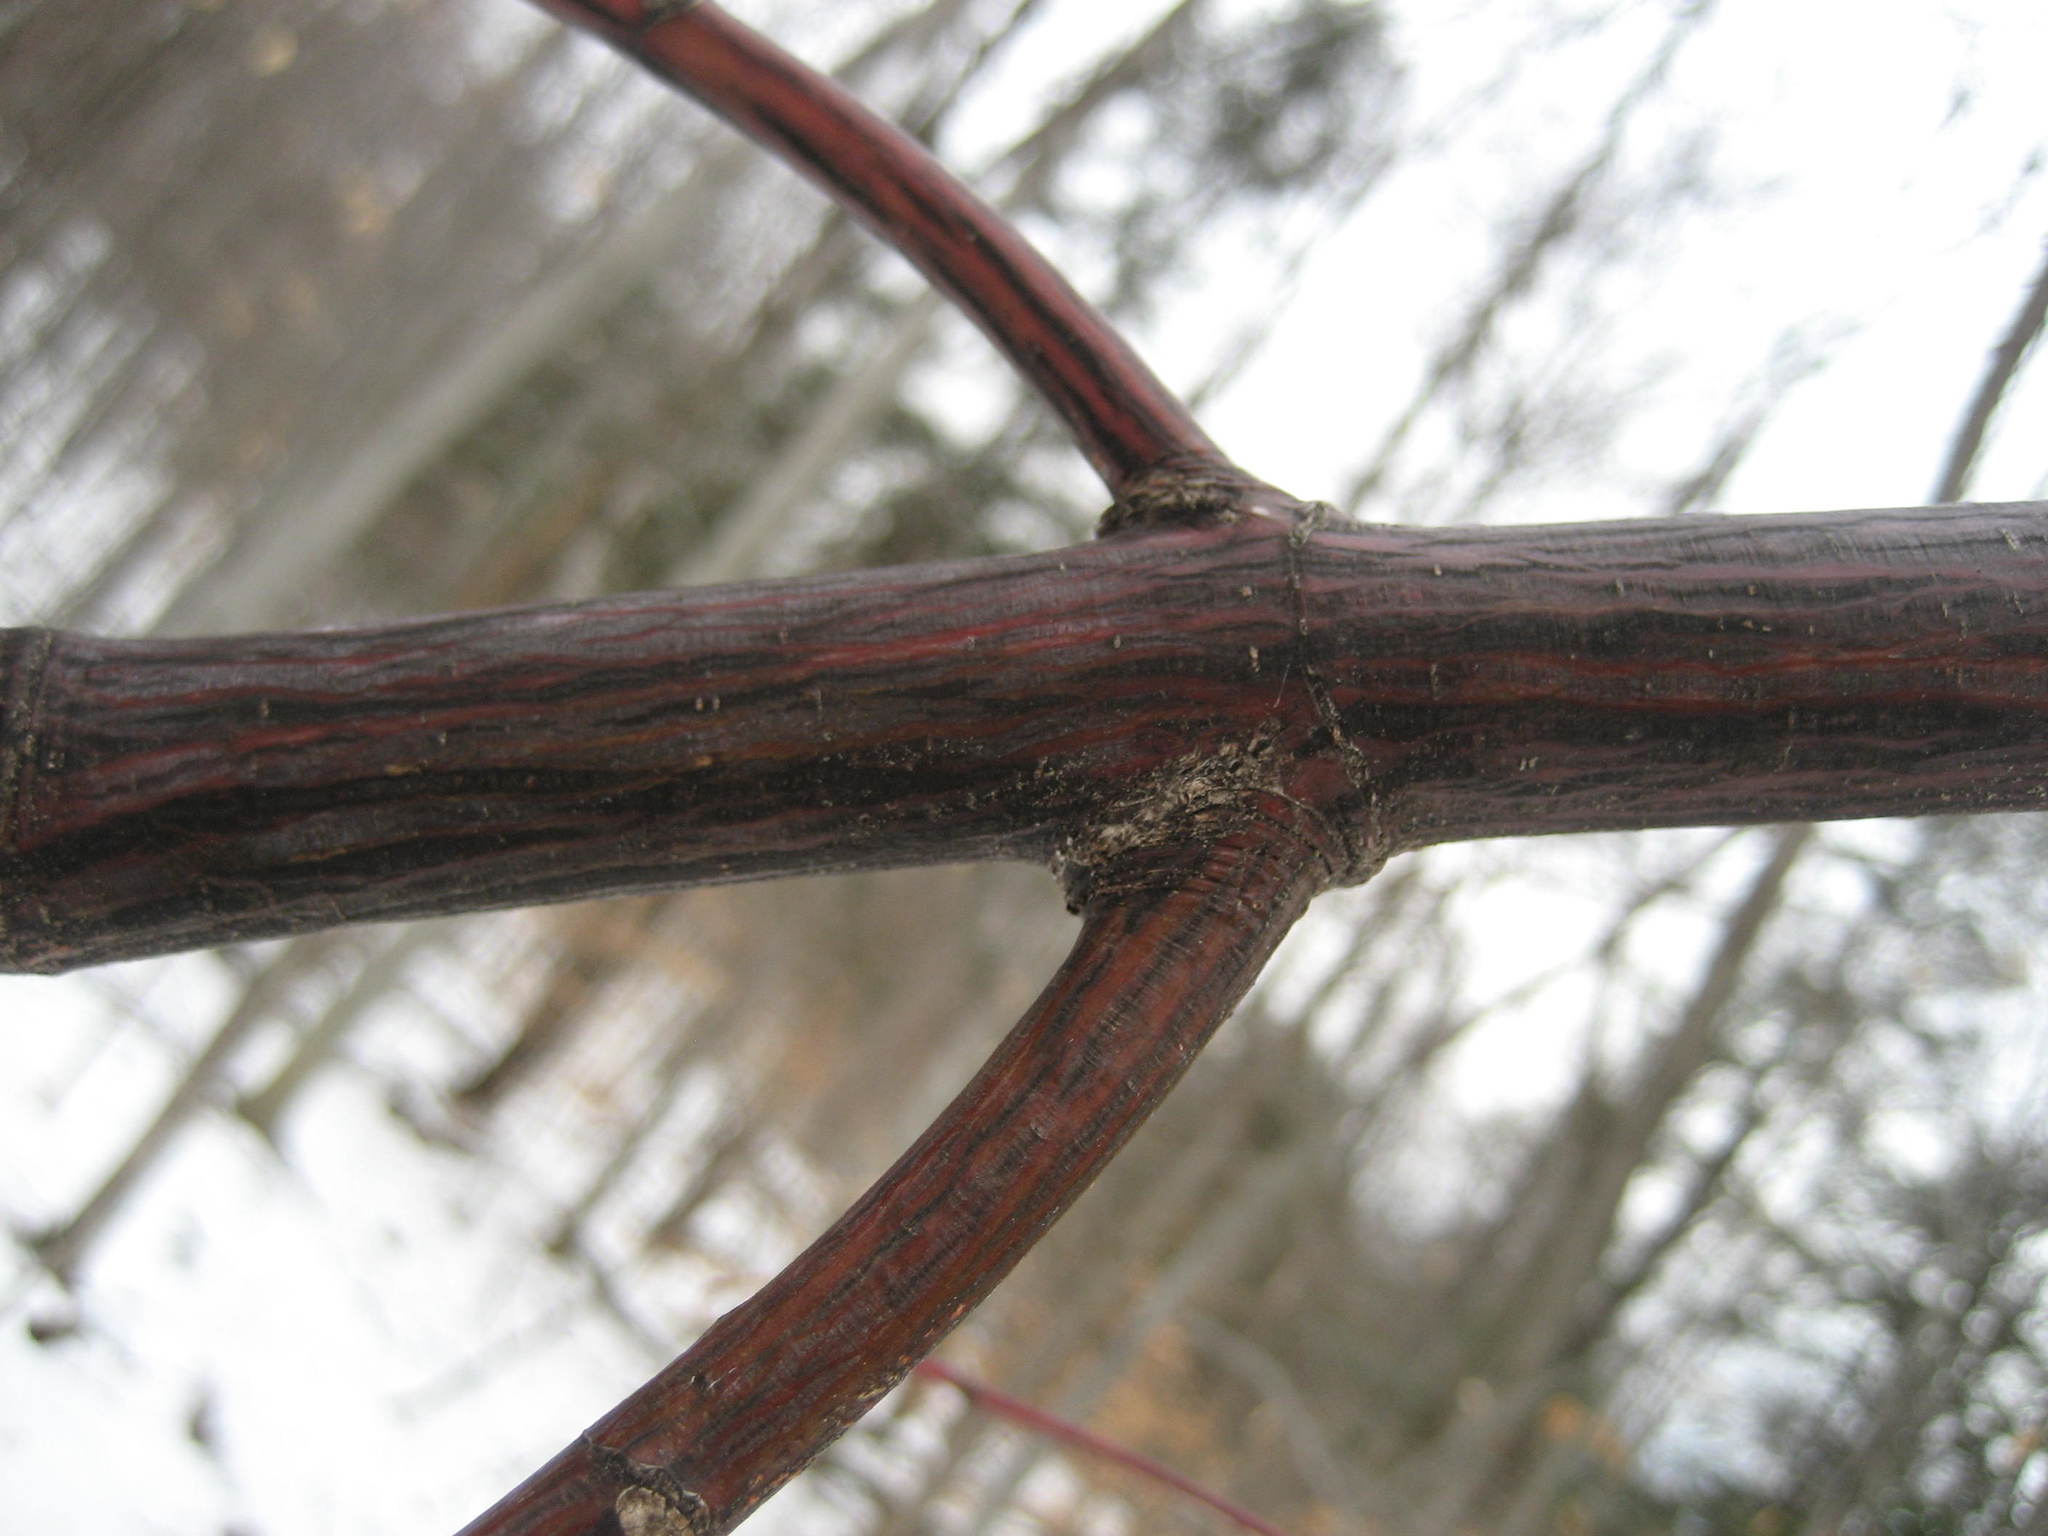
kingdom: Plantae
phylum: Tracheophyta
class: Magnoliopsida
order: Sapindales
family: Sapindaceae
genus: Acer
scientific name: Acer pensylvanicum
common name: Moosewood
